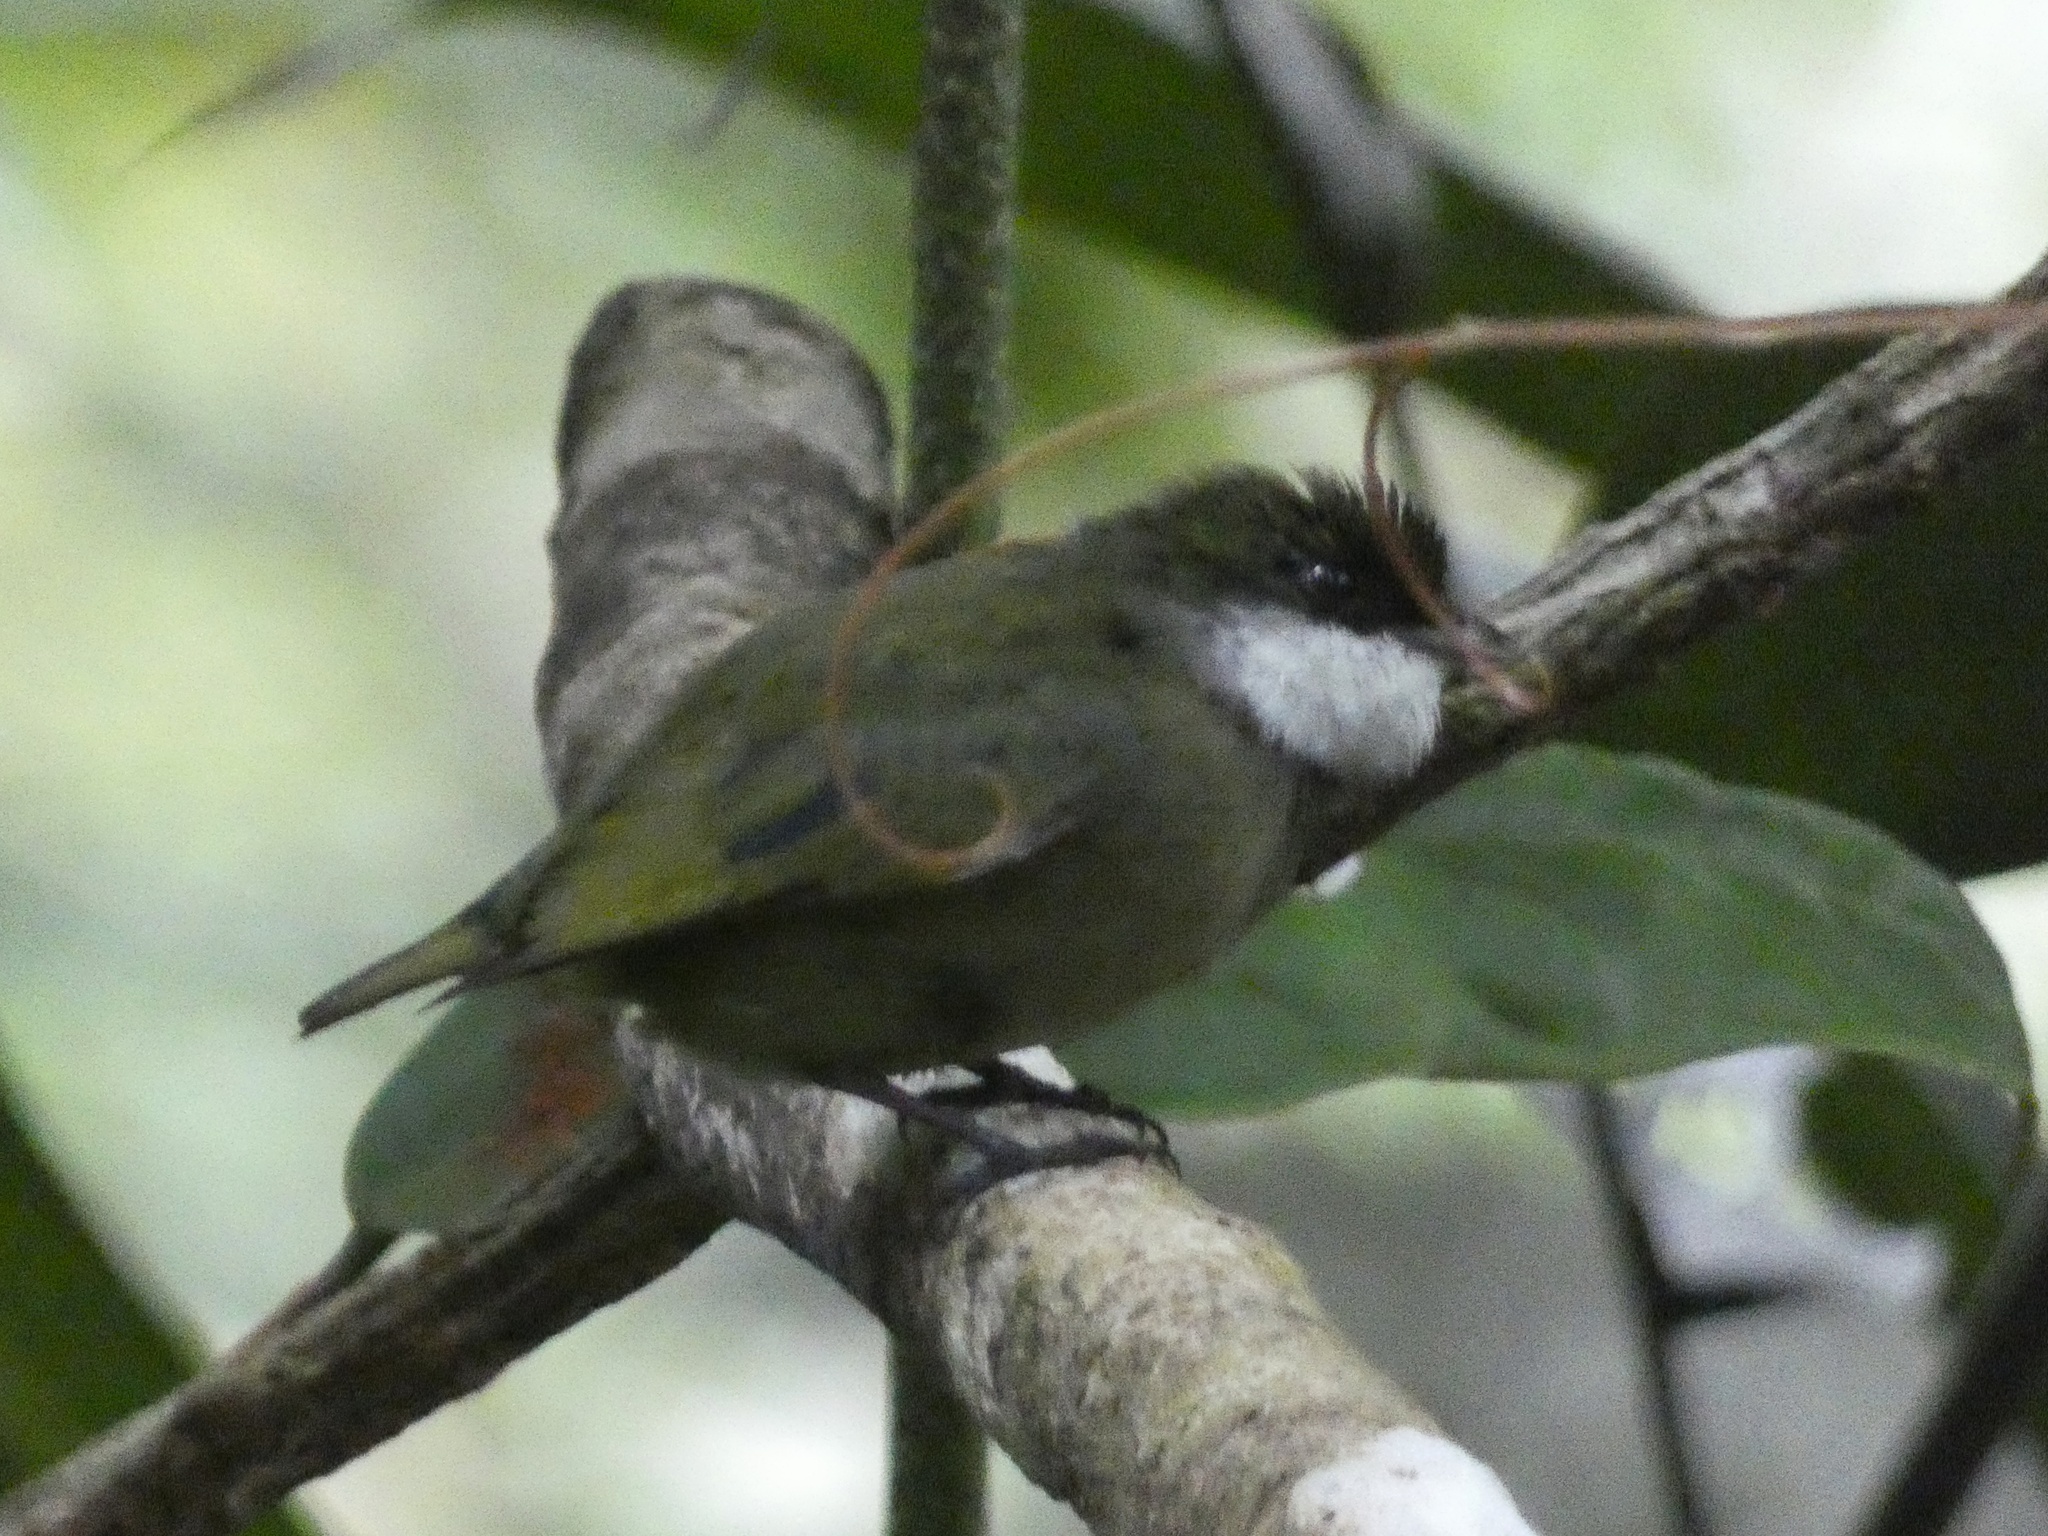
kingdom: Animalia
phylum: Chordata
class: Aves
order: Passeriformes
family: Pipridae
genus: Corapipo
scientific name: Corapipo altera
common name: White-ruffed manakin
